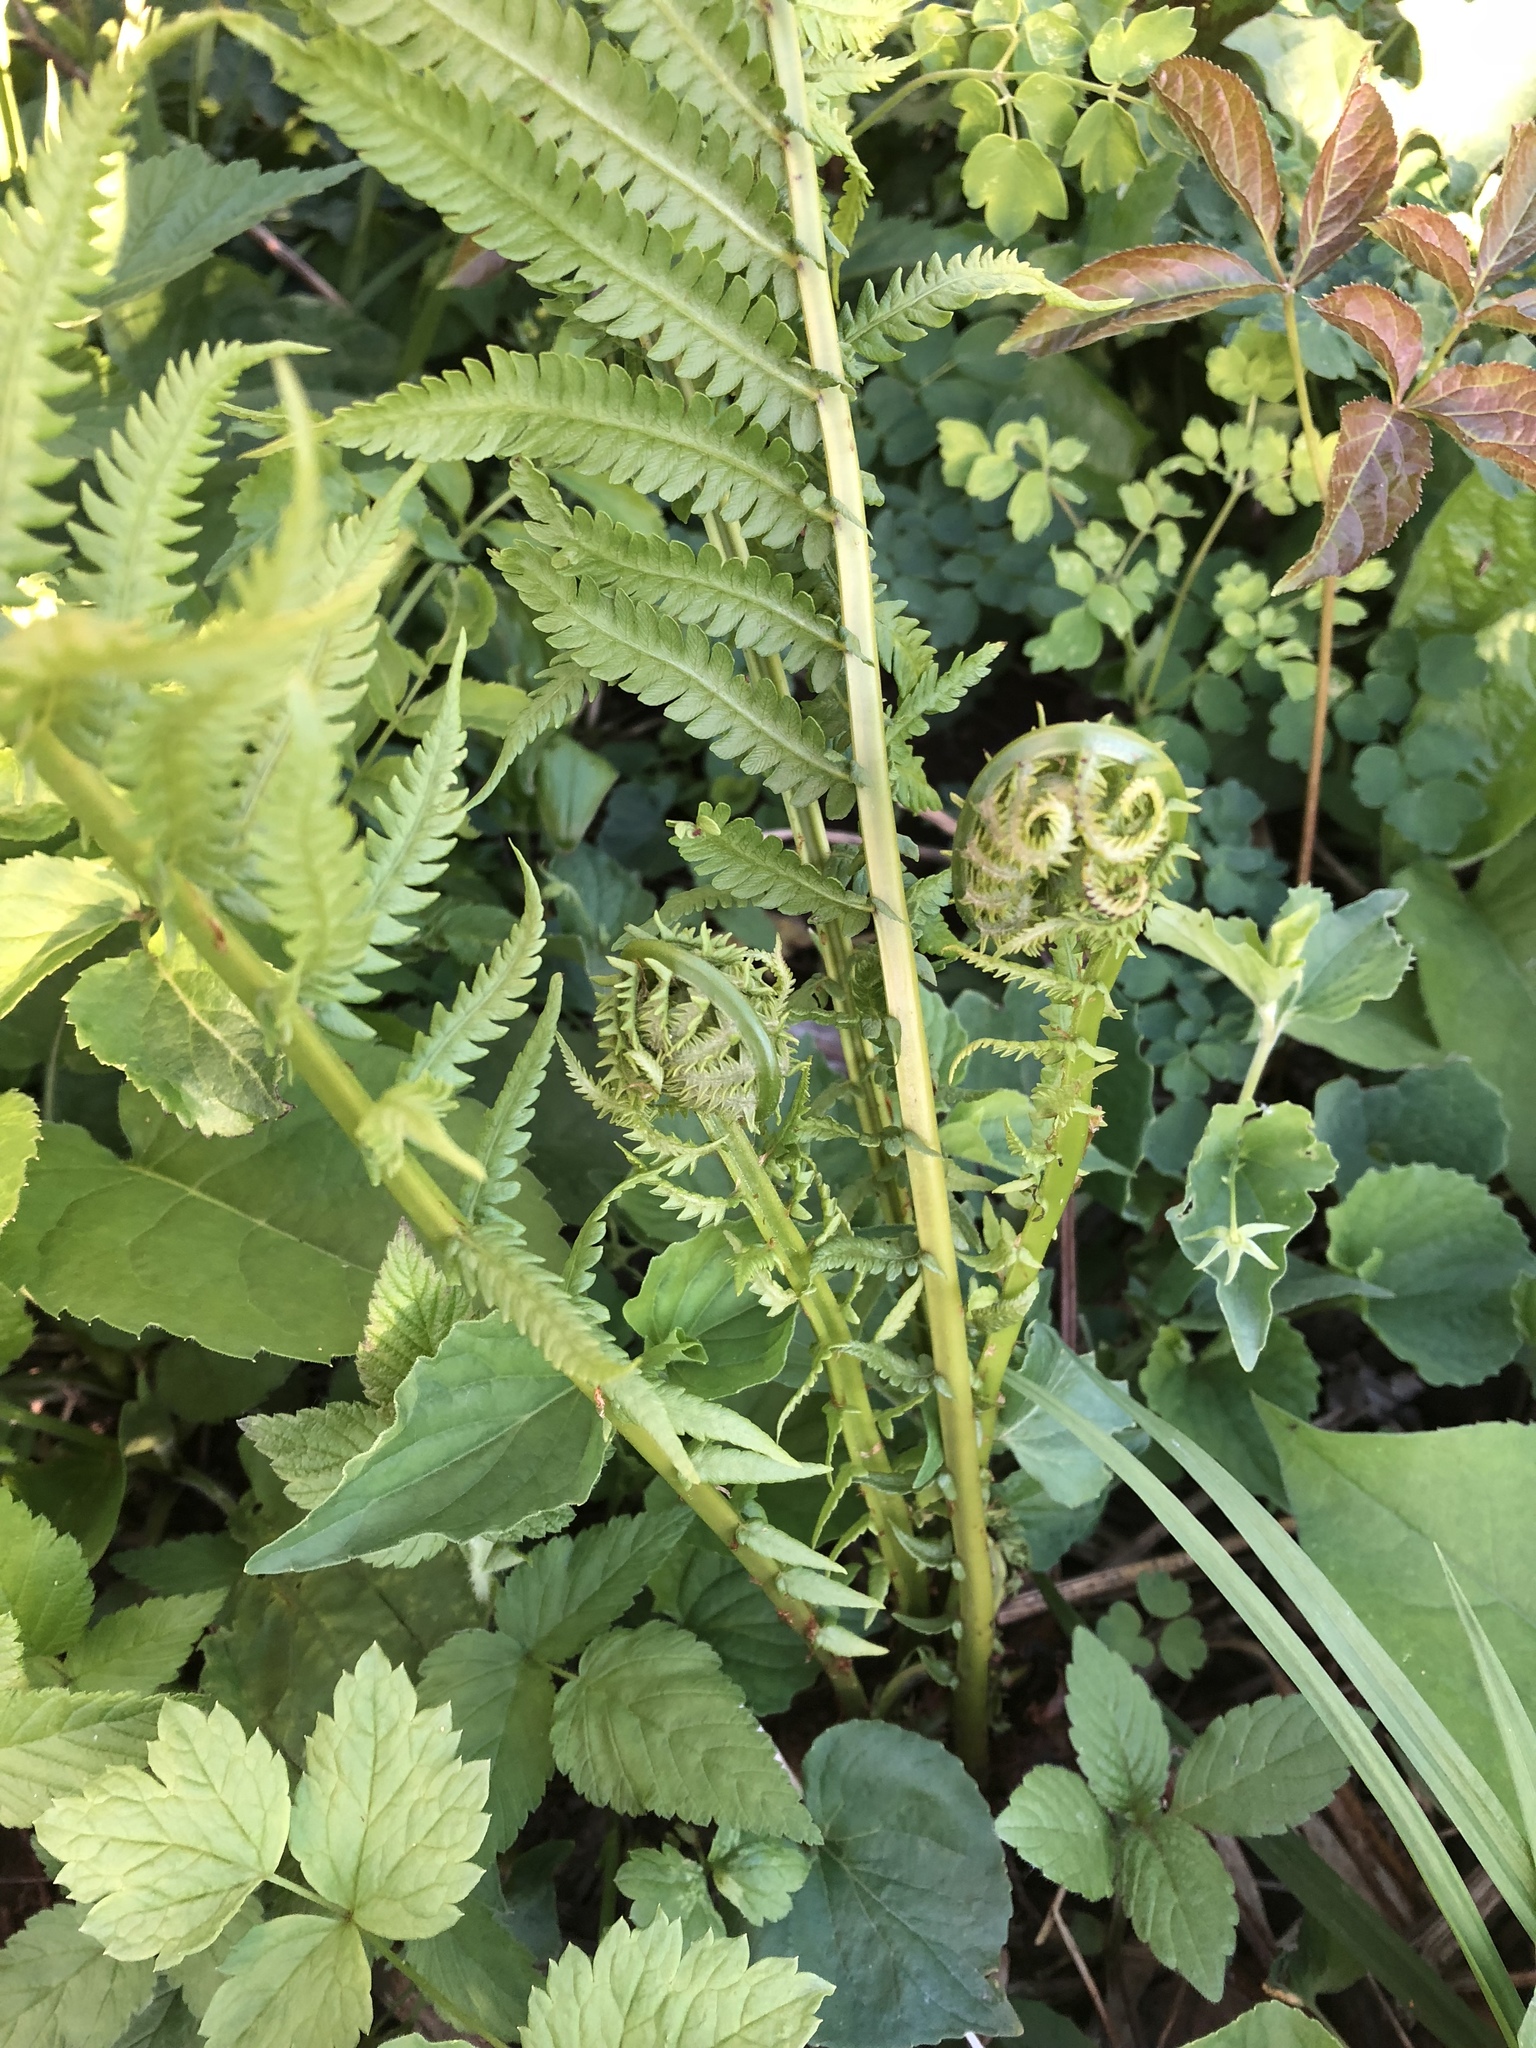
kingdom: Plantae
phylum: Tracheophyta
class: Polypodiopsida
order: Polypodiales
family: Onocleaceae
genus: Matteuccia
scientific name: Matteuccia struthiopteris
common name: Ostrich fern
